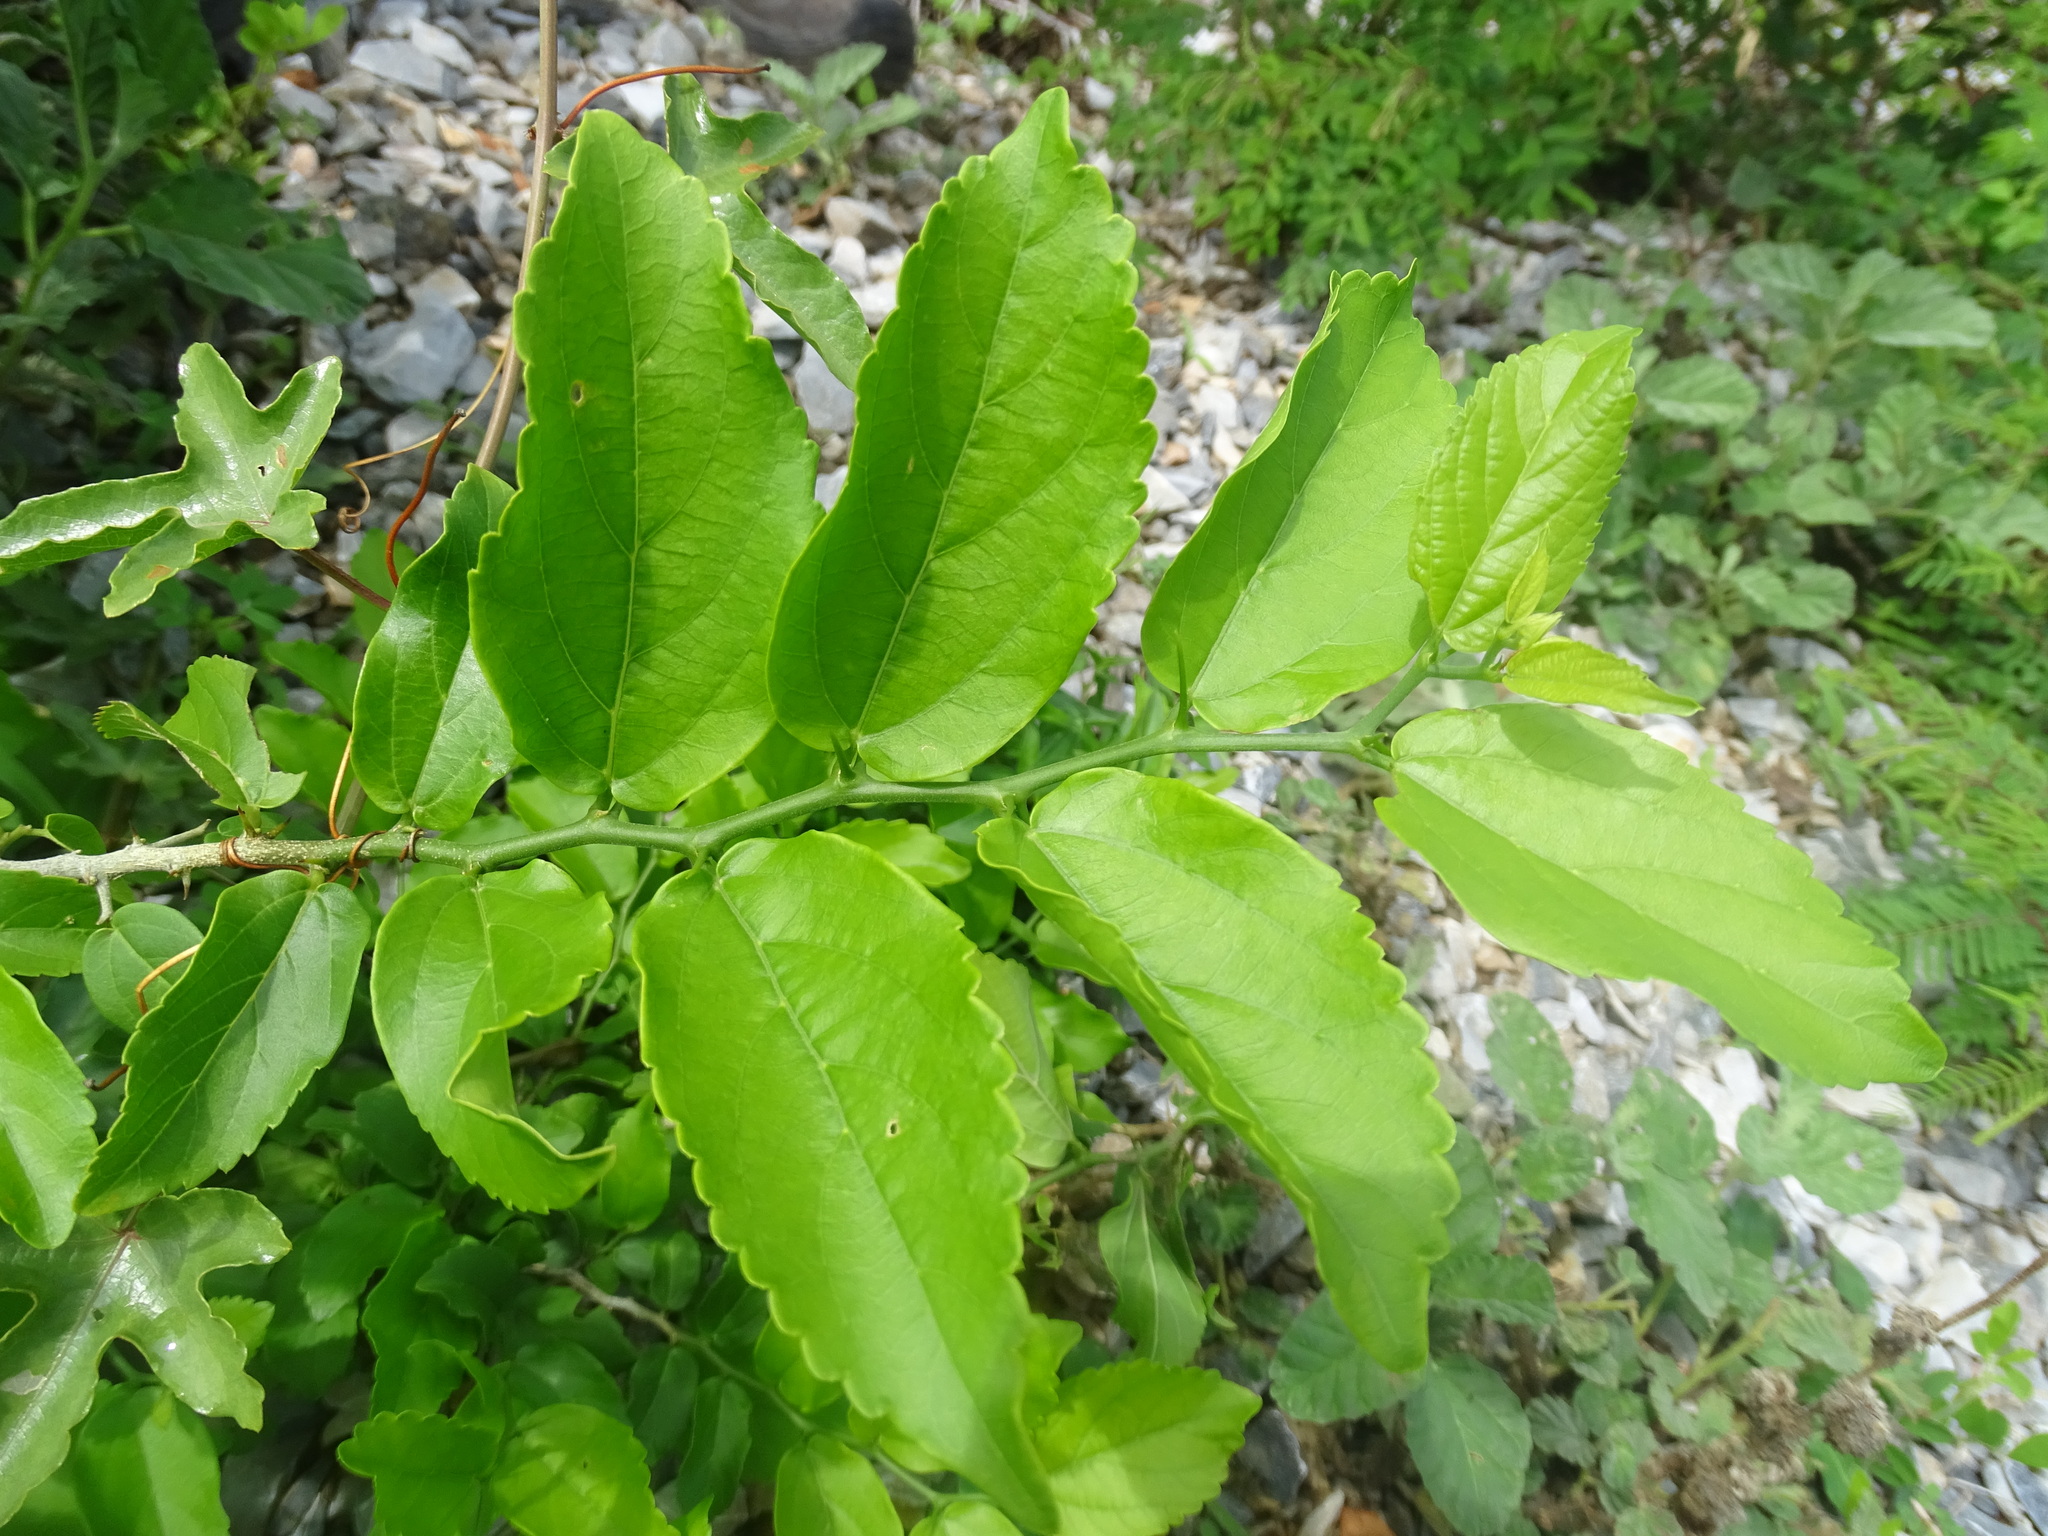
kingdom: Plantae
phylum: Tracheophyta
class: Magnoliopsida
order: Rosales
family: Cannabaceae
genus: Celtis
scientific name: Celtis iguanaea
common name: Iguana hackberry
